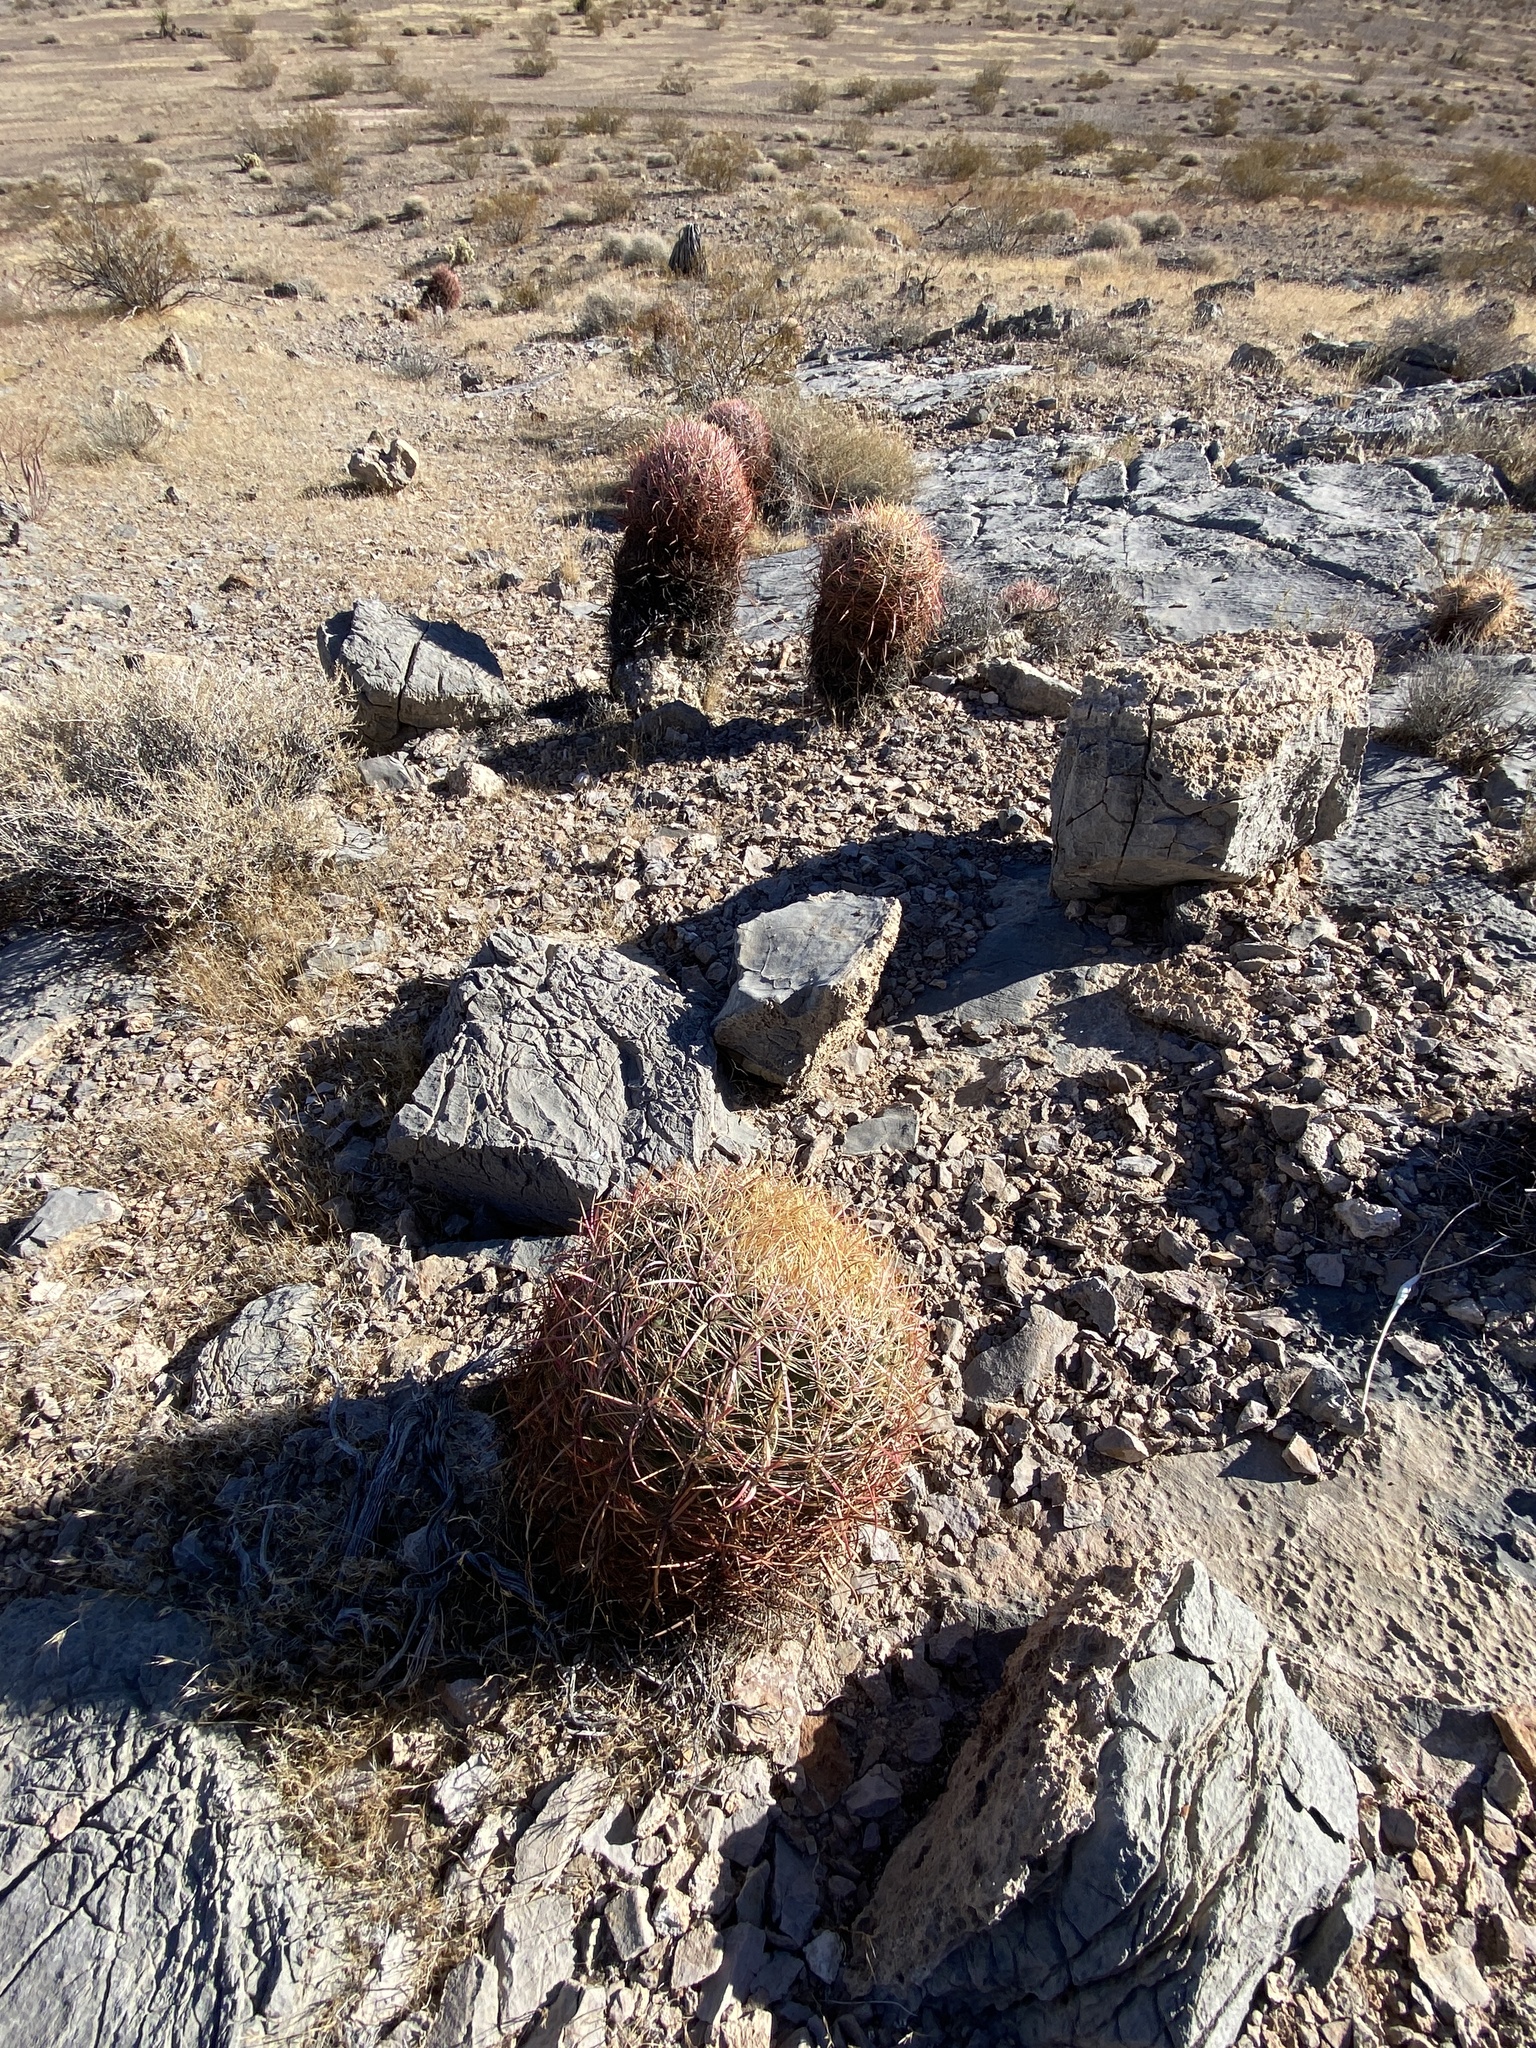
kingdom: Plantae
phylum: Tracheophyta
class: Magnoliopsida
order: Caryophyllales
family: Cactaceae
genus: Ferocactus
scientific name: Ferocactus cylindraceus
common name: California barrel cactus
